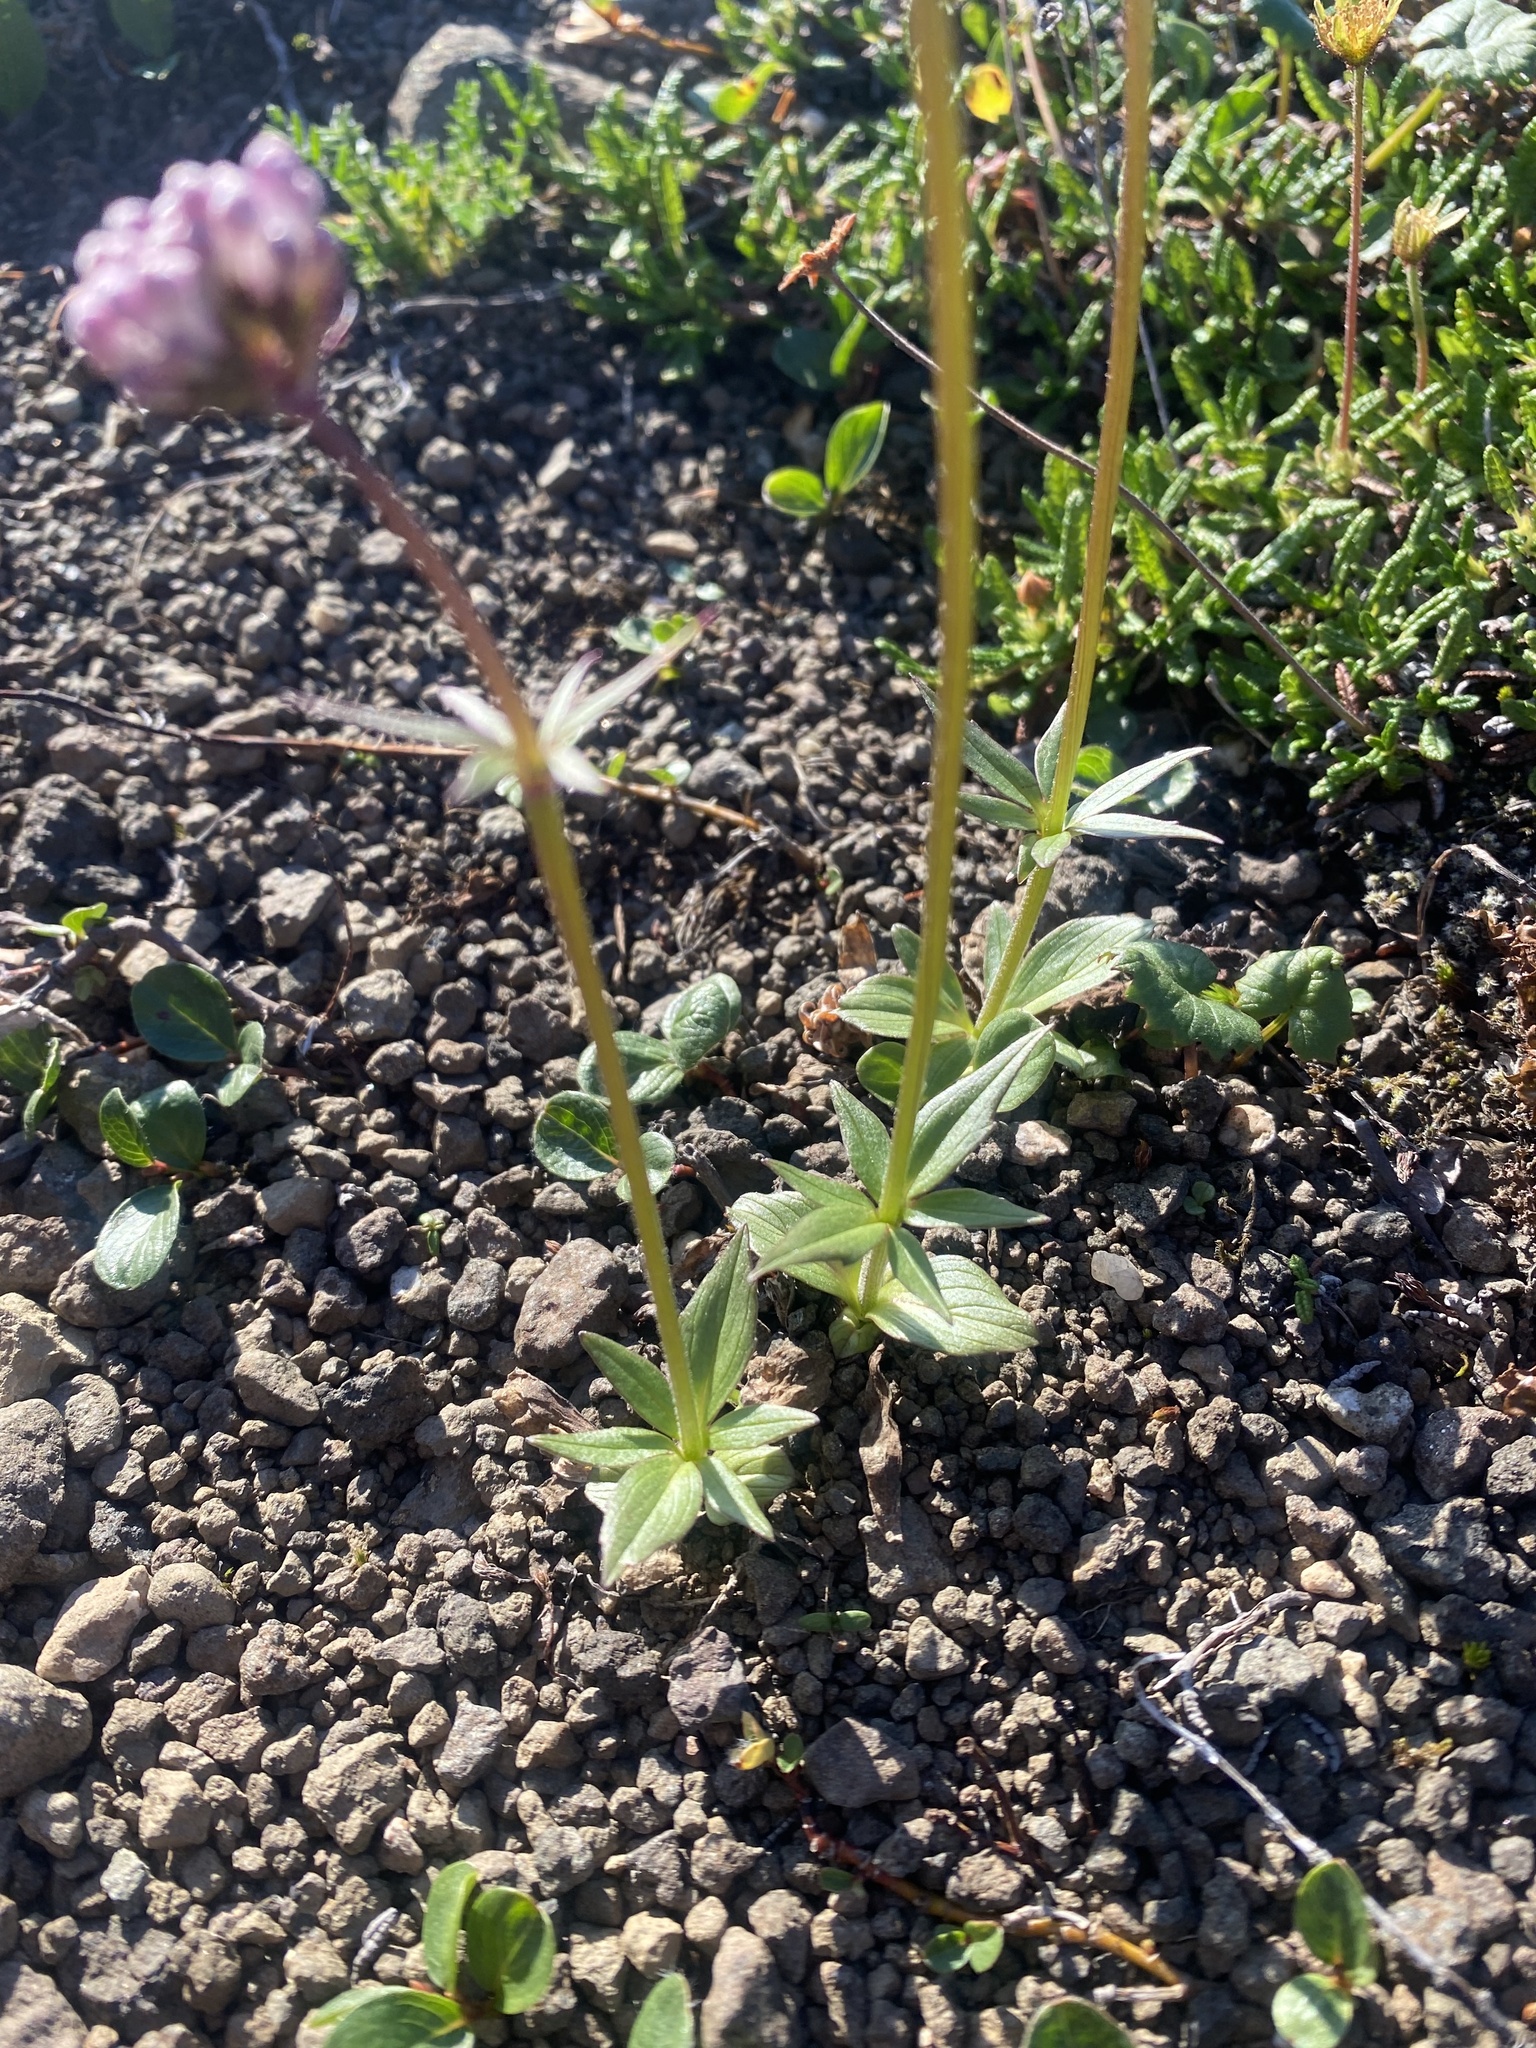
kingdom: Plantae
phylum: Tracheophyta
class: Magnoliopsida
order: Dipsacales
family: Caprifoliaceae
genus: Valeriana
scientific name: Valeriana capitata
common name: Capitate valerian
